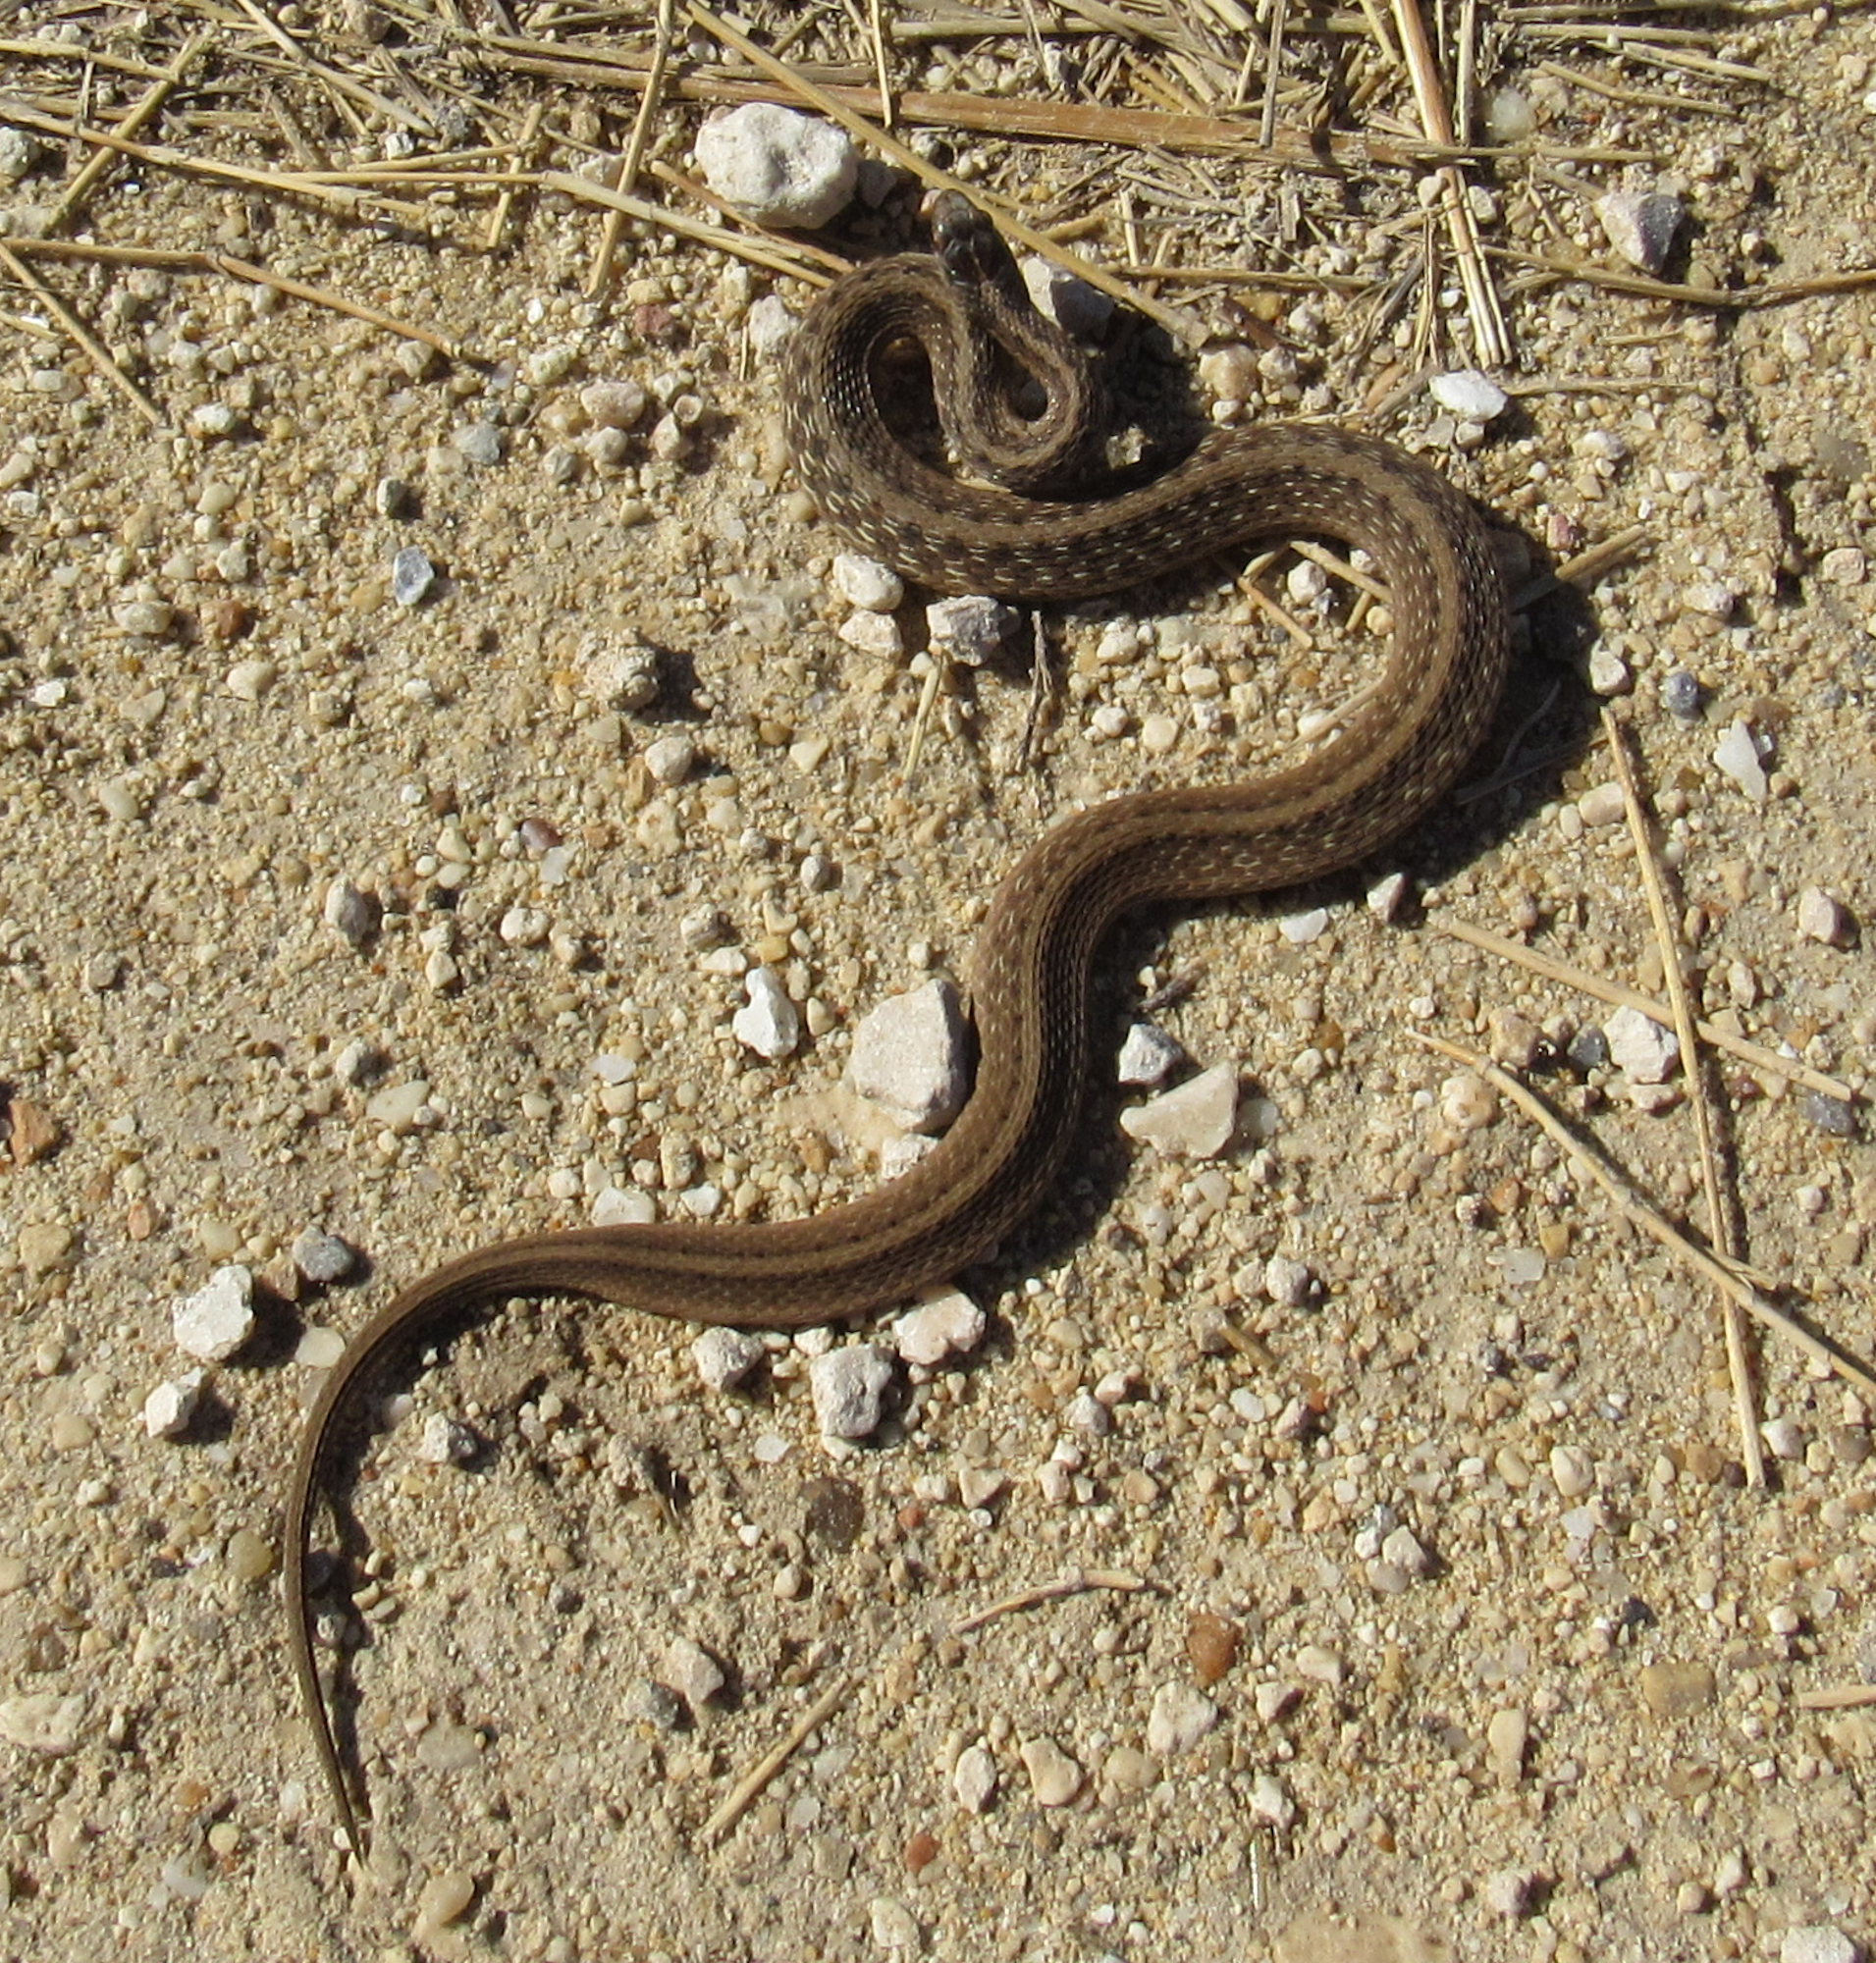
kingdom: Animalia
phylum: Chordata
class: Squamata
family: Colubridae
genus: Storeria
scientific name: Storeria dekayi
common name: (dekay’s) brown snake
